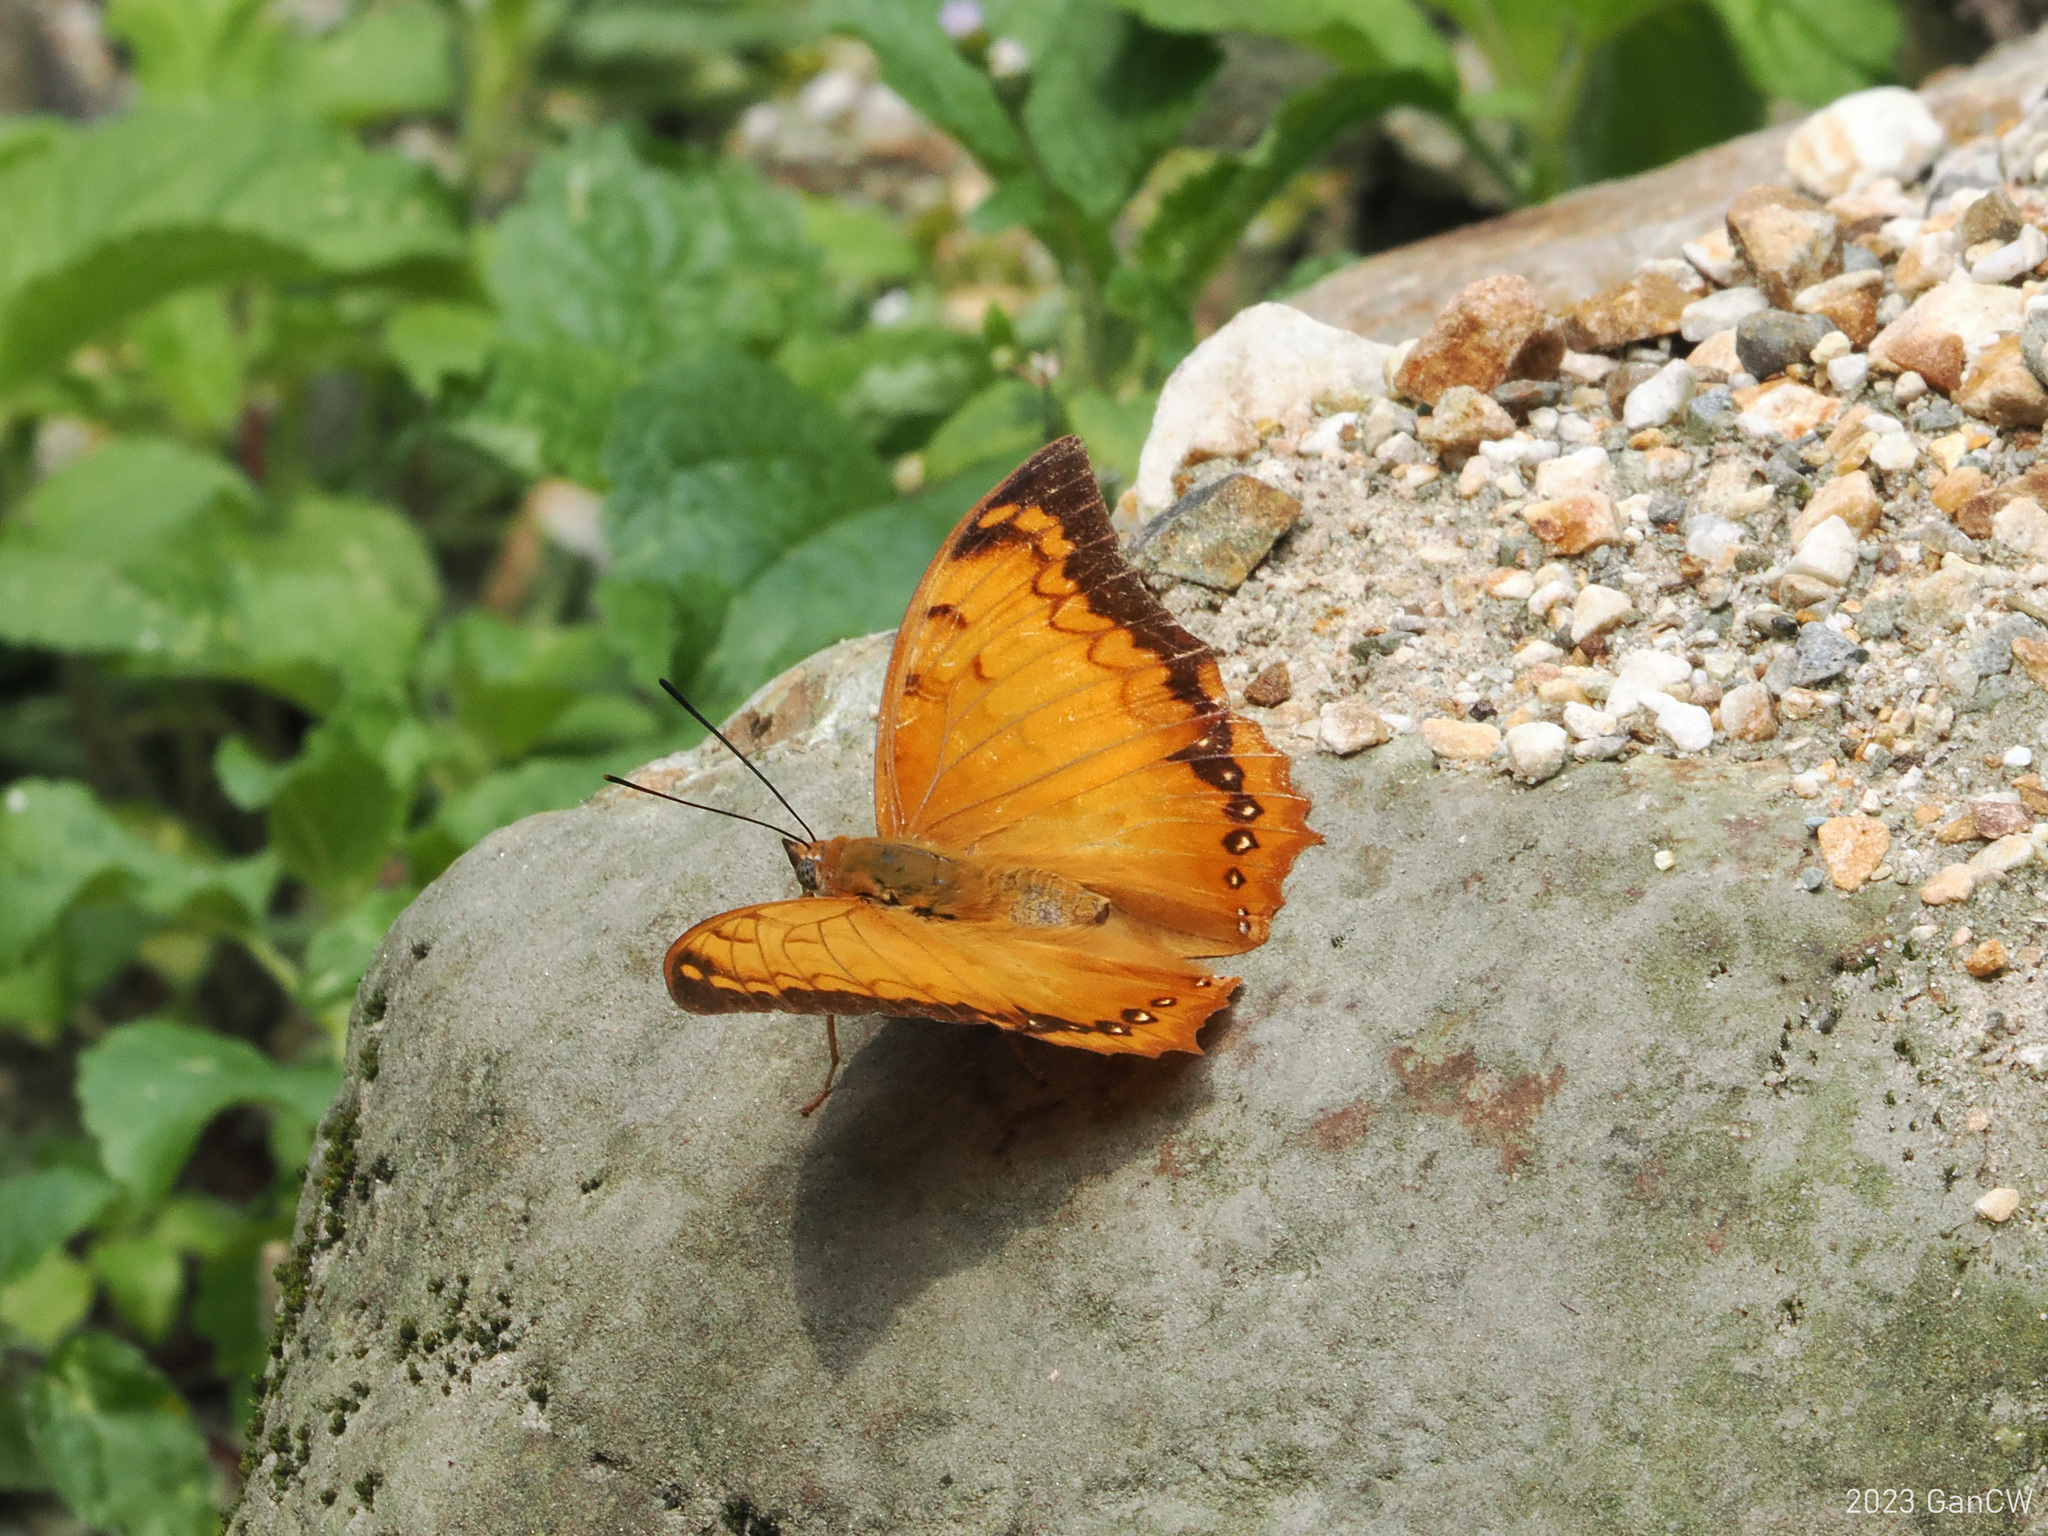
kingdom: Animalia
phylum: Arthropoda
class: Insecta
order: Lepidoptera
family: Nymphalidae
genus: Charaxes
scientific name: Charaxes kahruba
